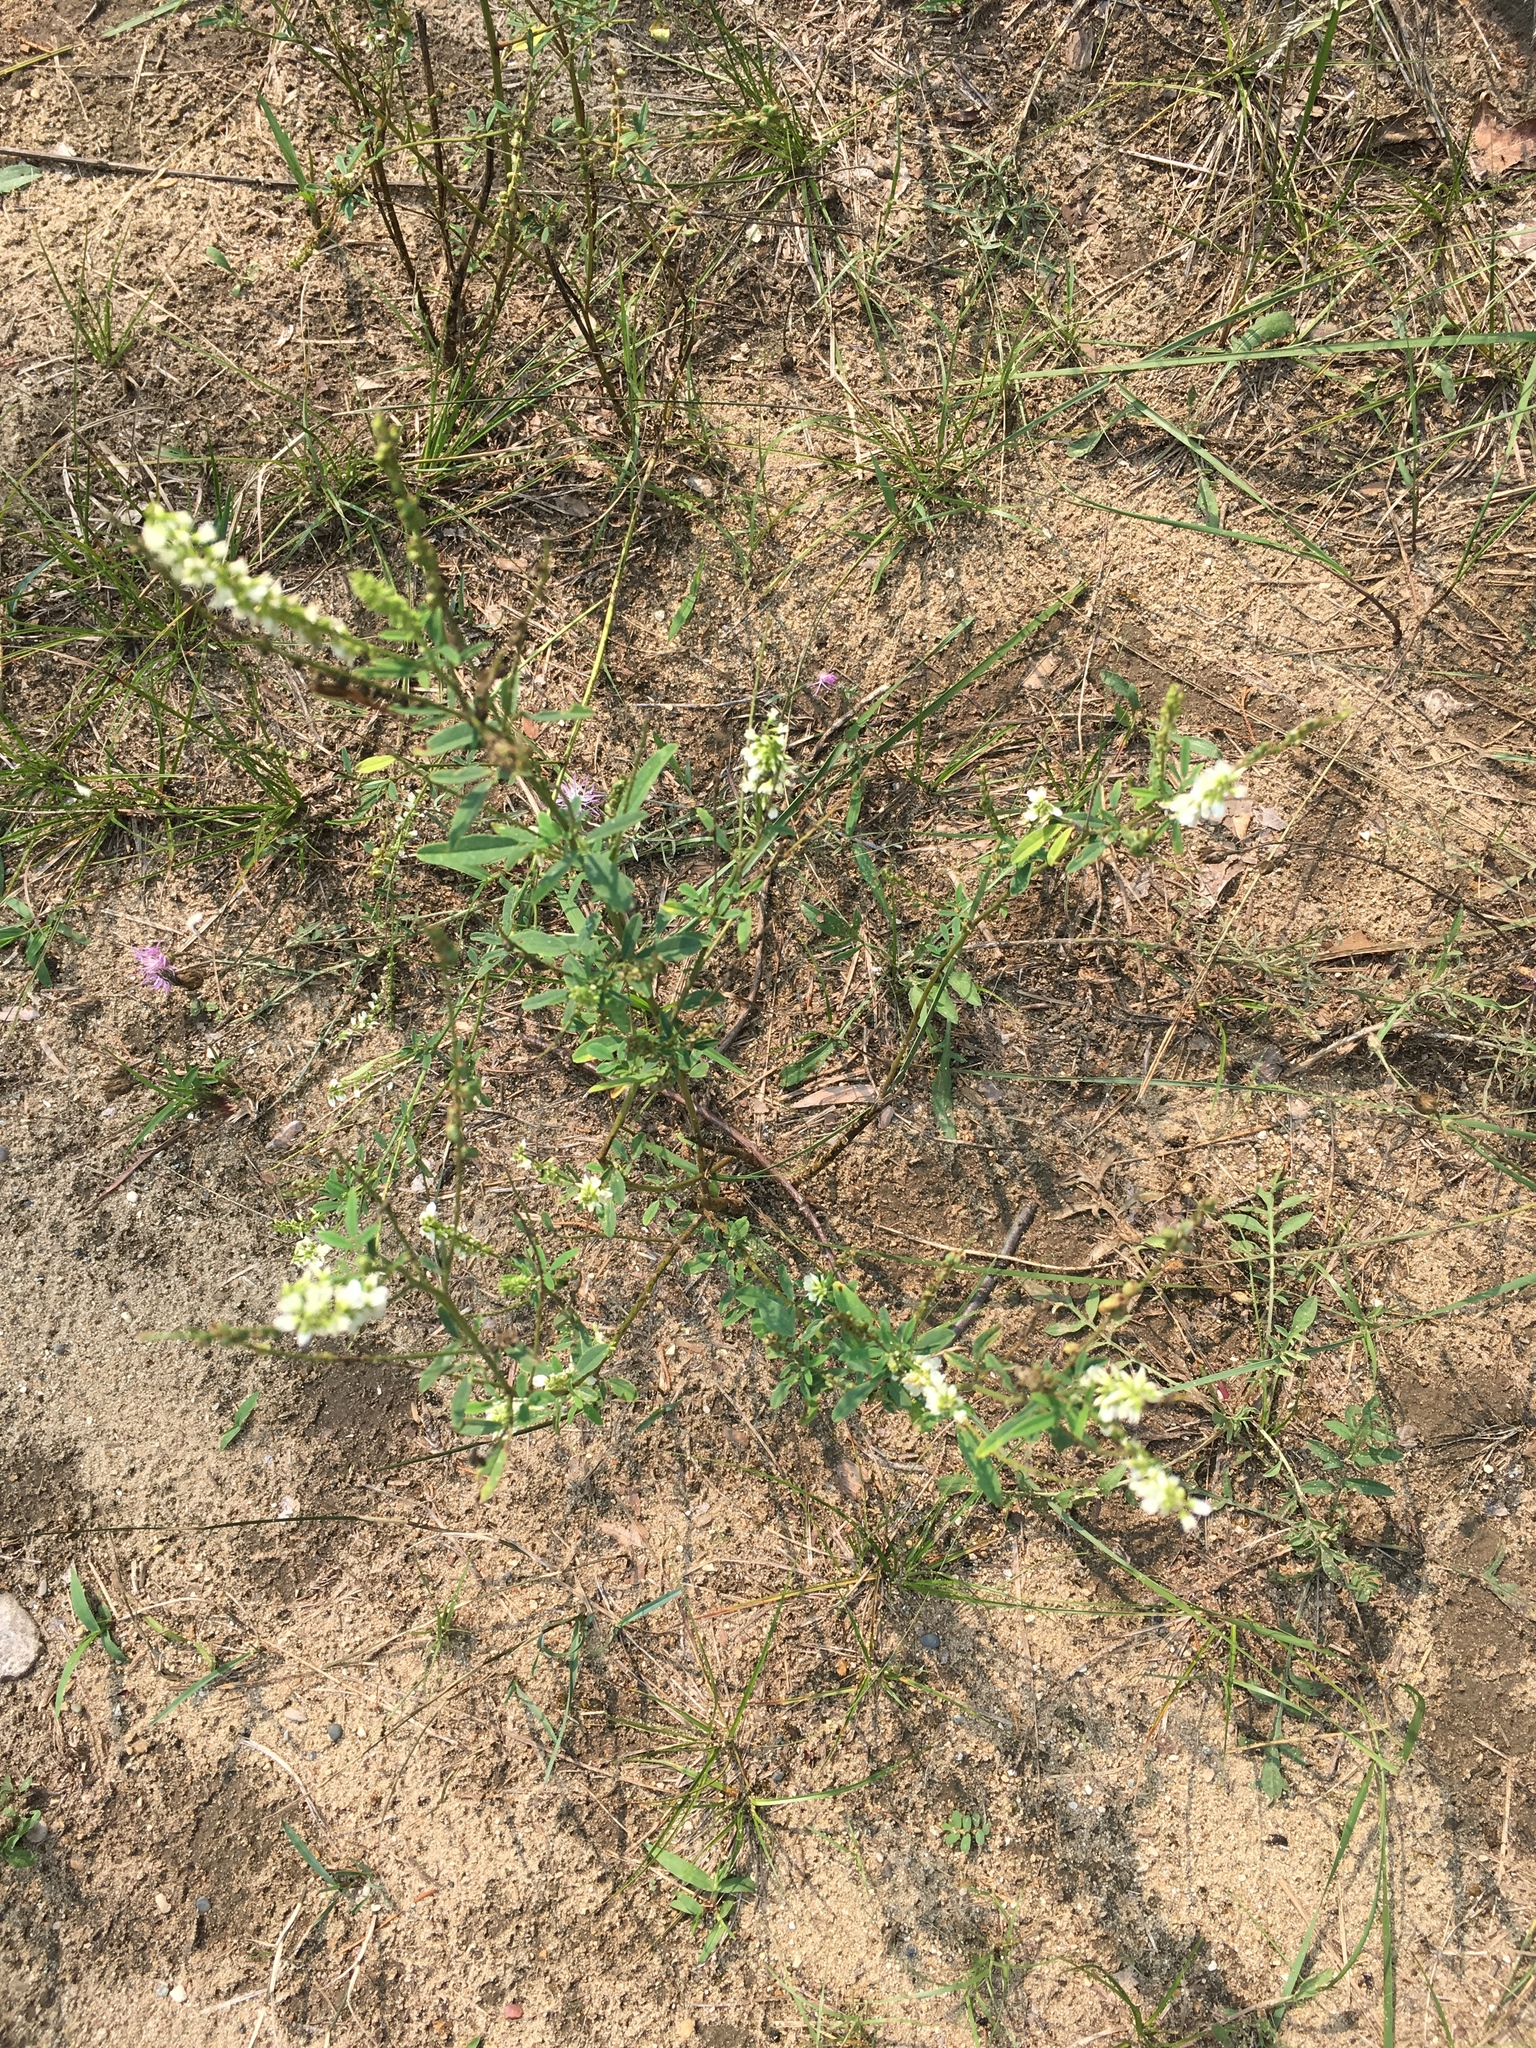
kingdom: Plantae
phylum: Tracheophyta
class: Magnoliopsida
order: Fabales
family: Fabaceae
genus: Melilotus
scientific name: Melilotus albus
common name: White melilot
